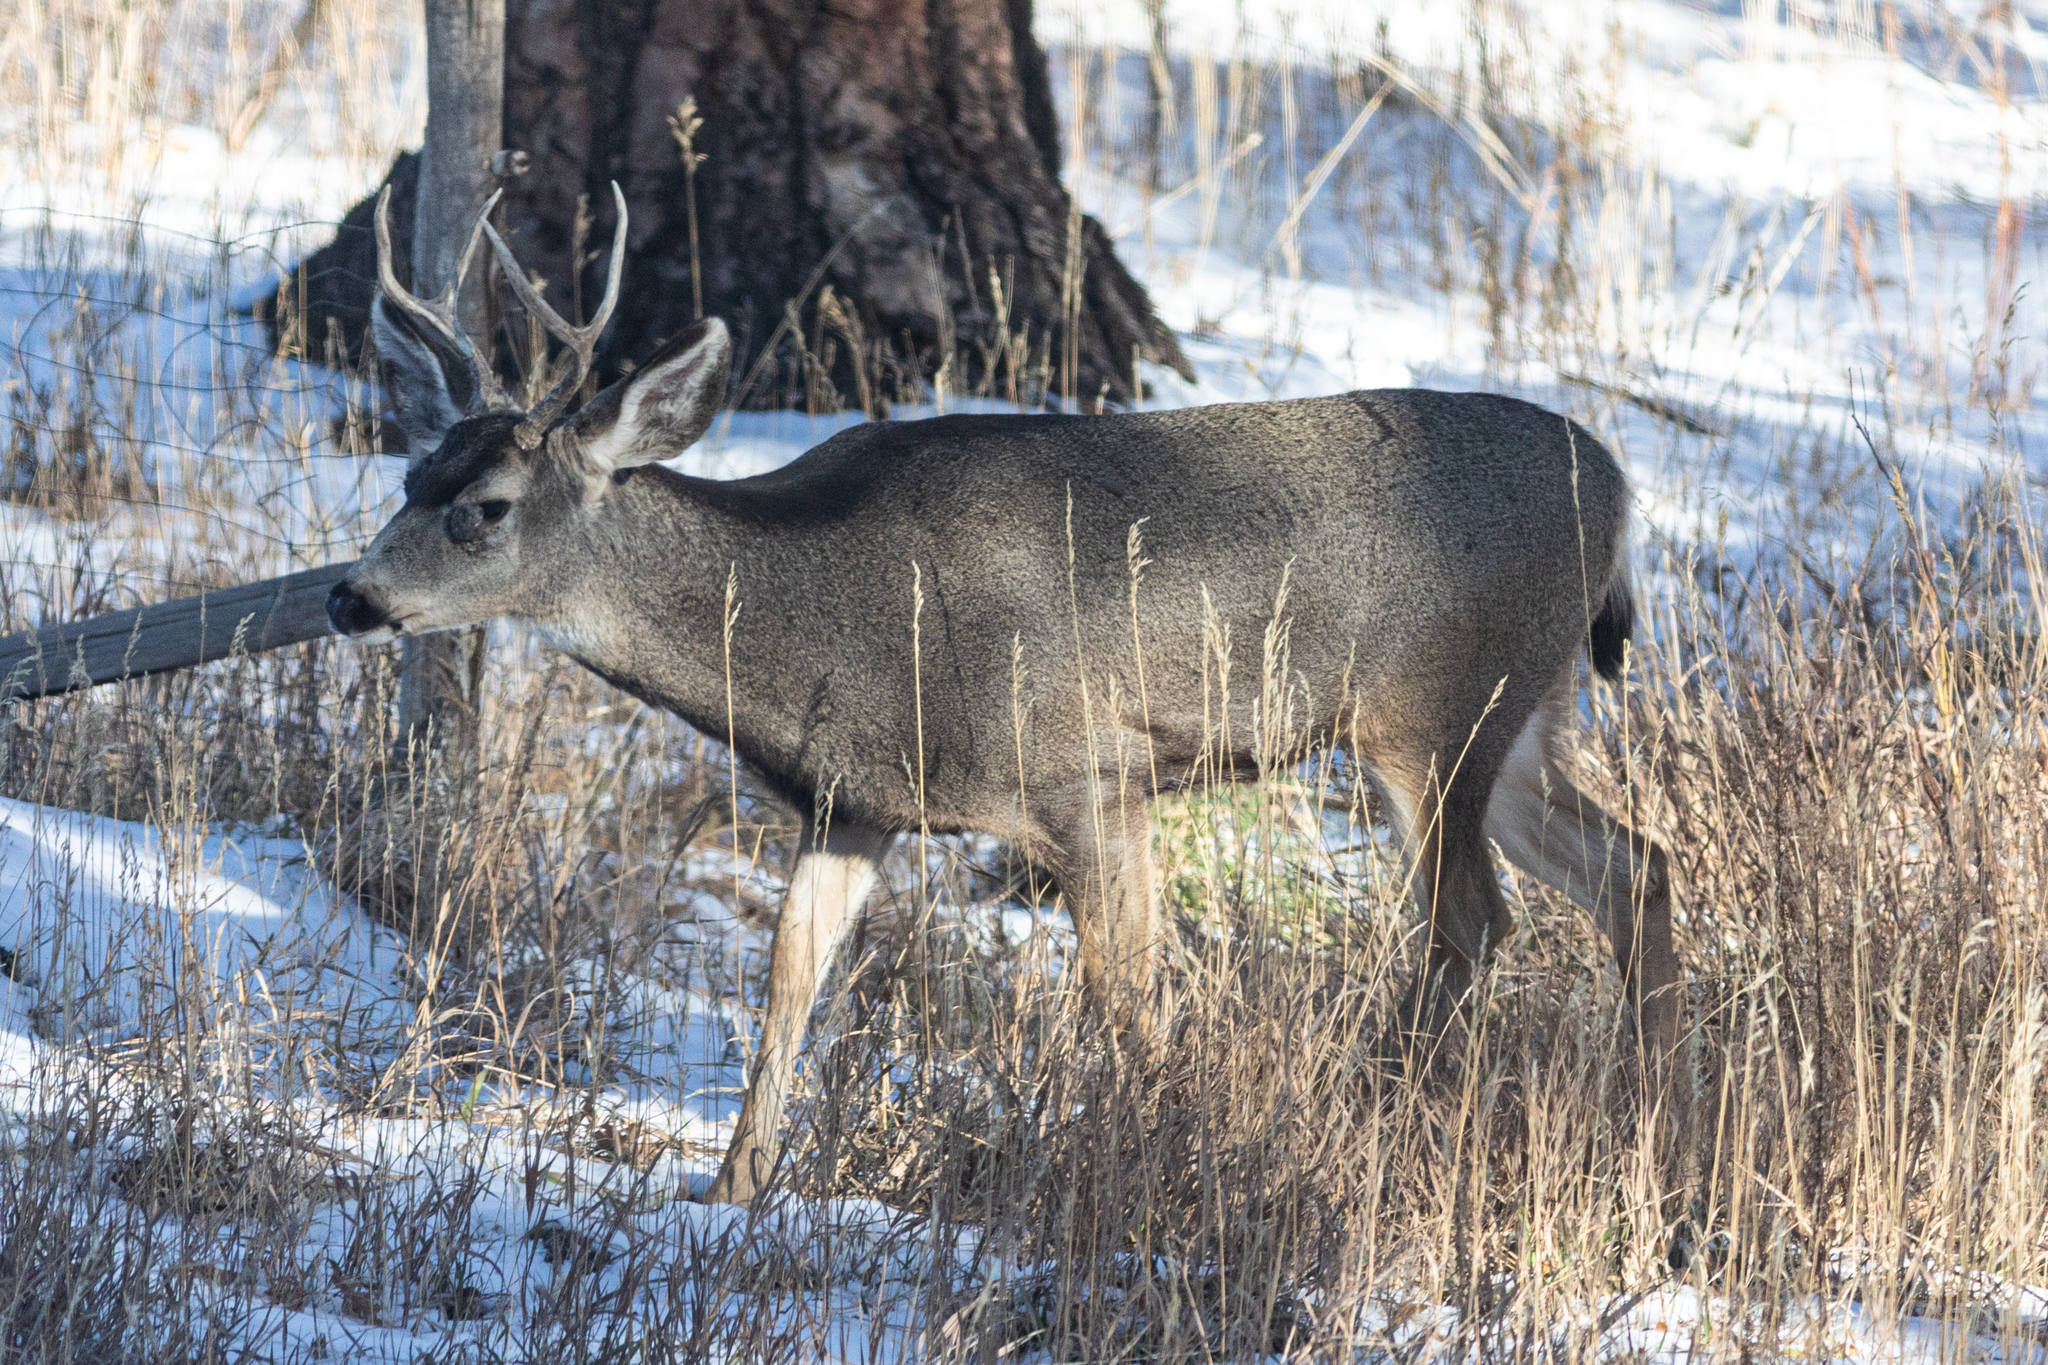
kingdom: Animalia
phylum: Chordata
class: Mammalia
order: Artiodactyla
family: Cervidae
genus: Odocoileus
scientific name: Odocoileus hemionus
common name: Mule deer
